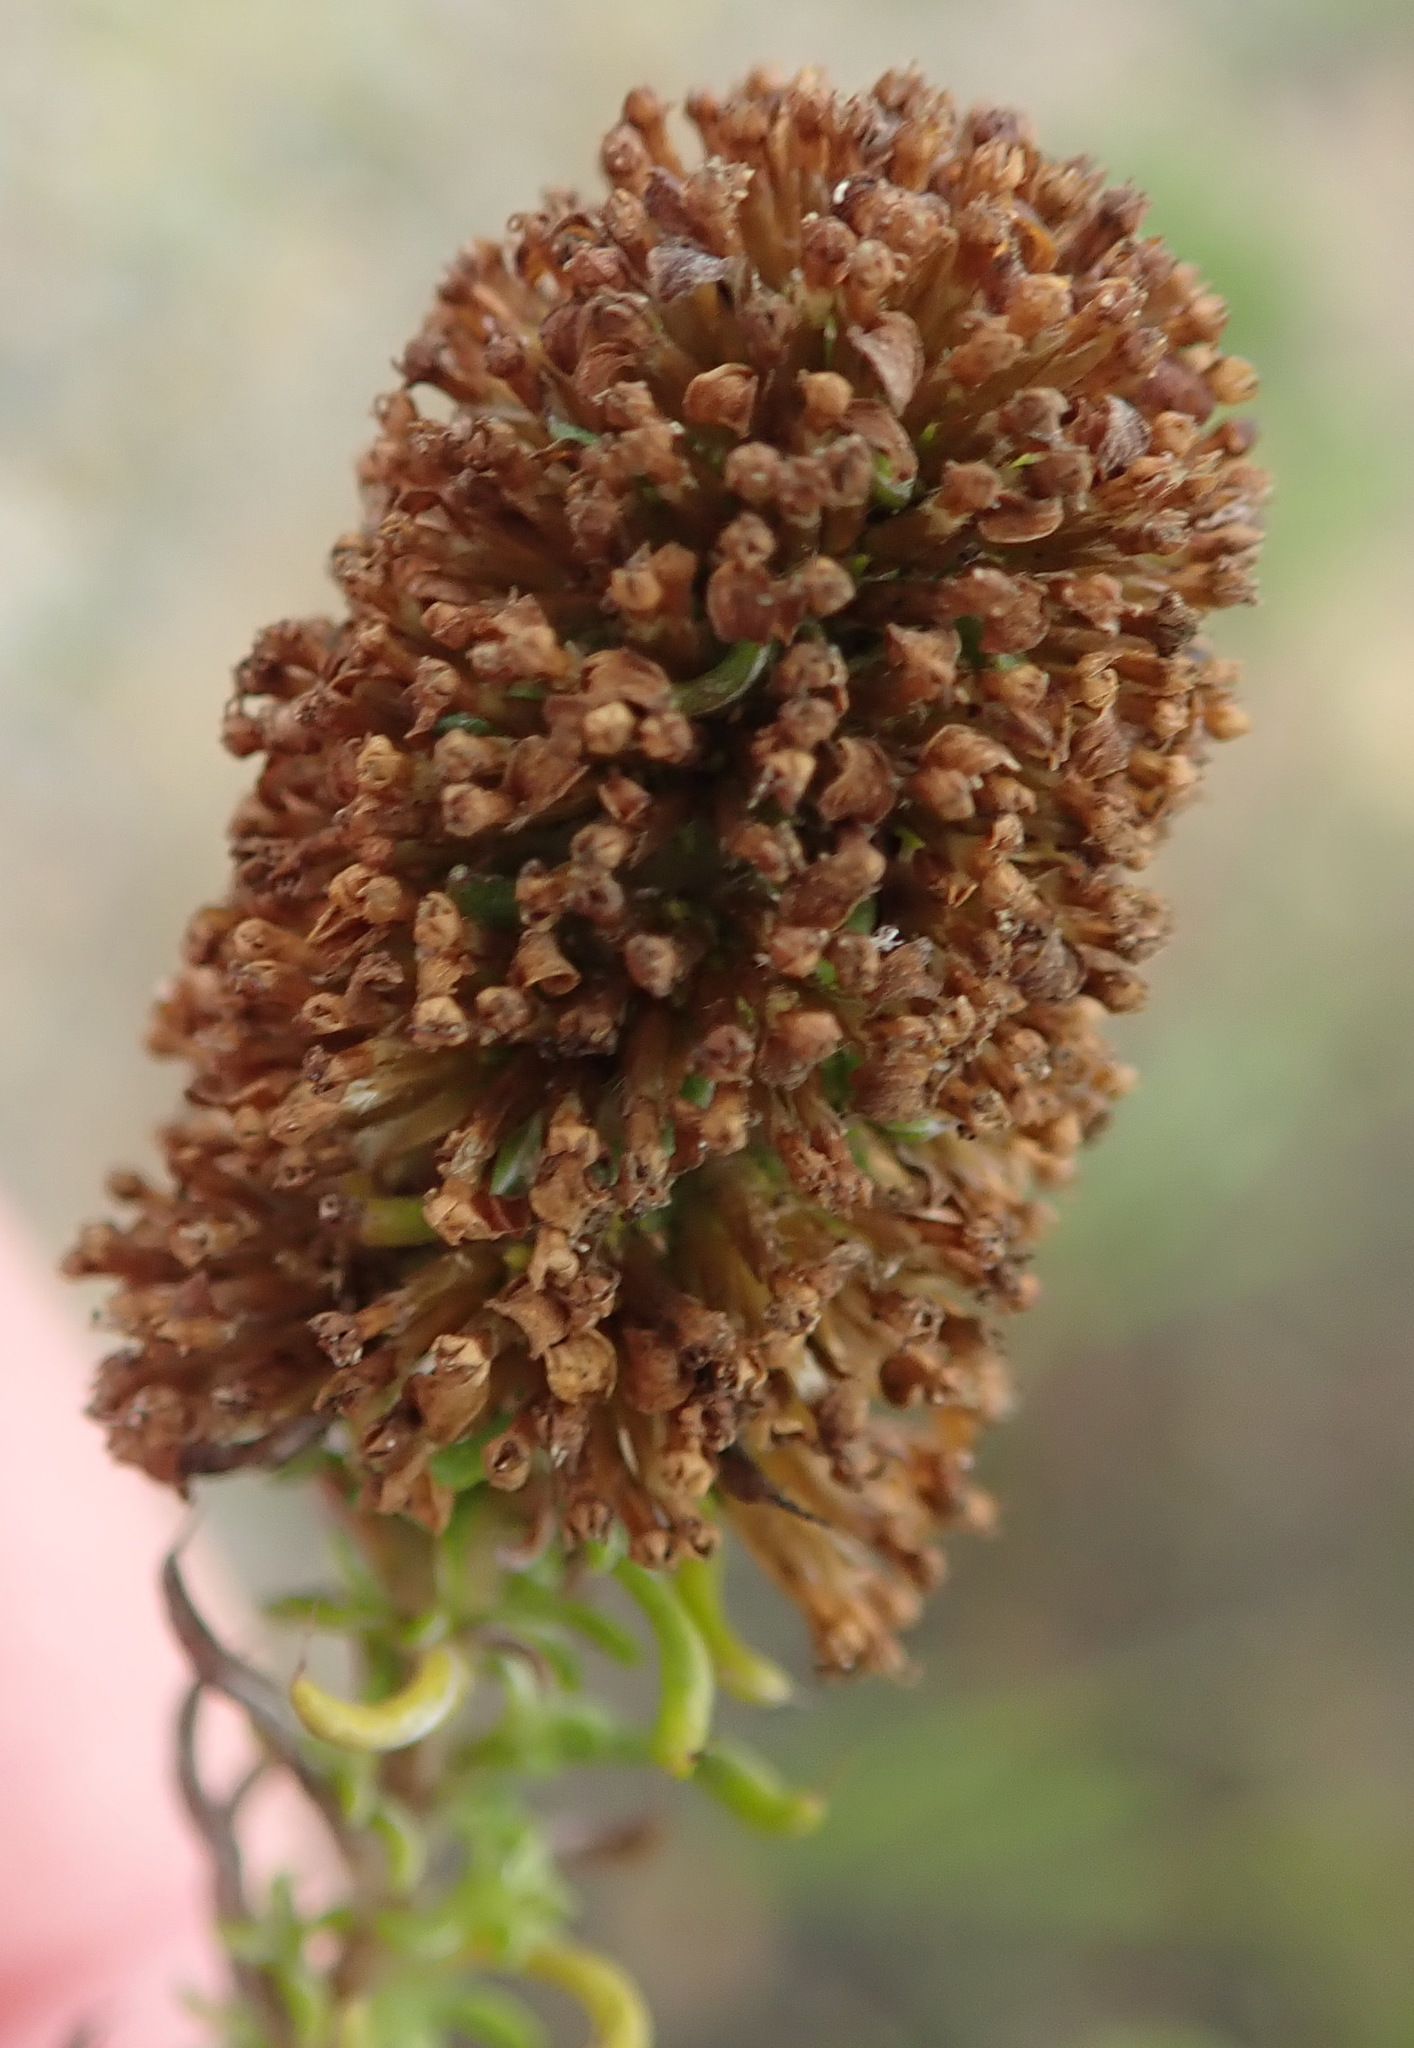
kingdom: Plantae
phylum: Tracheophyta
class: Magnoliopsida
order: Asterales
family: Asteraceae
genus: Disparago
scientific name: Disparago anomala
